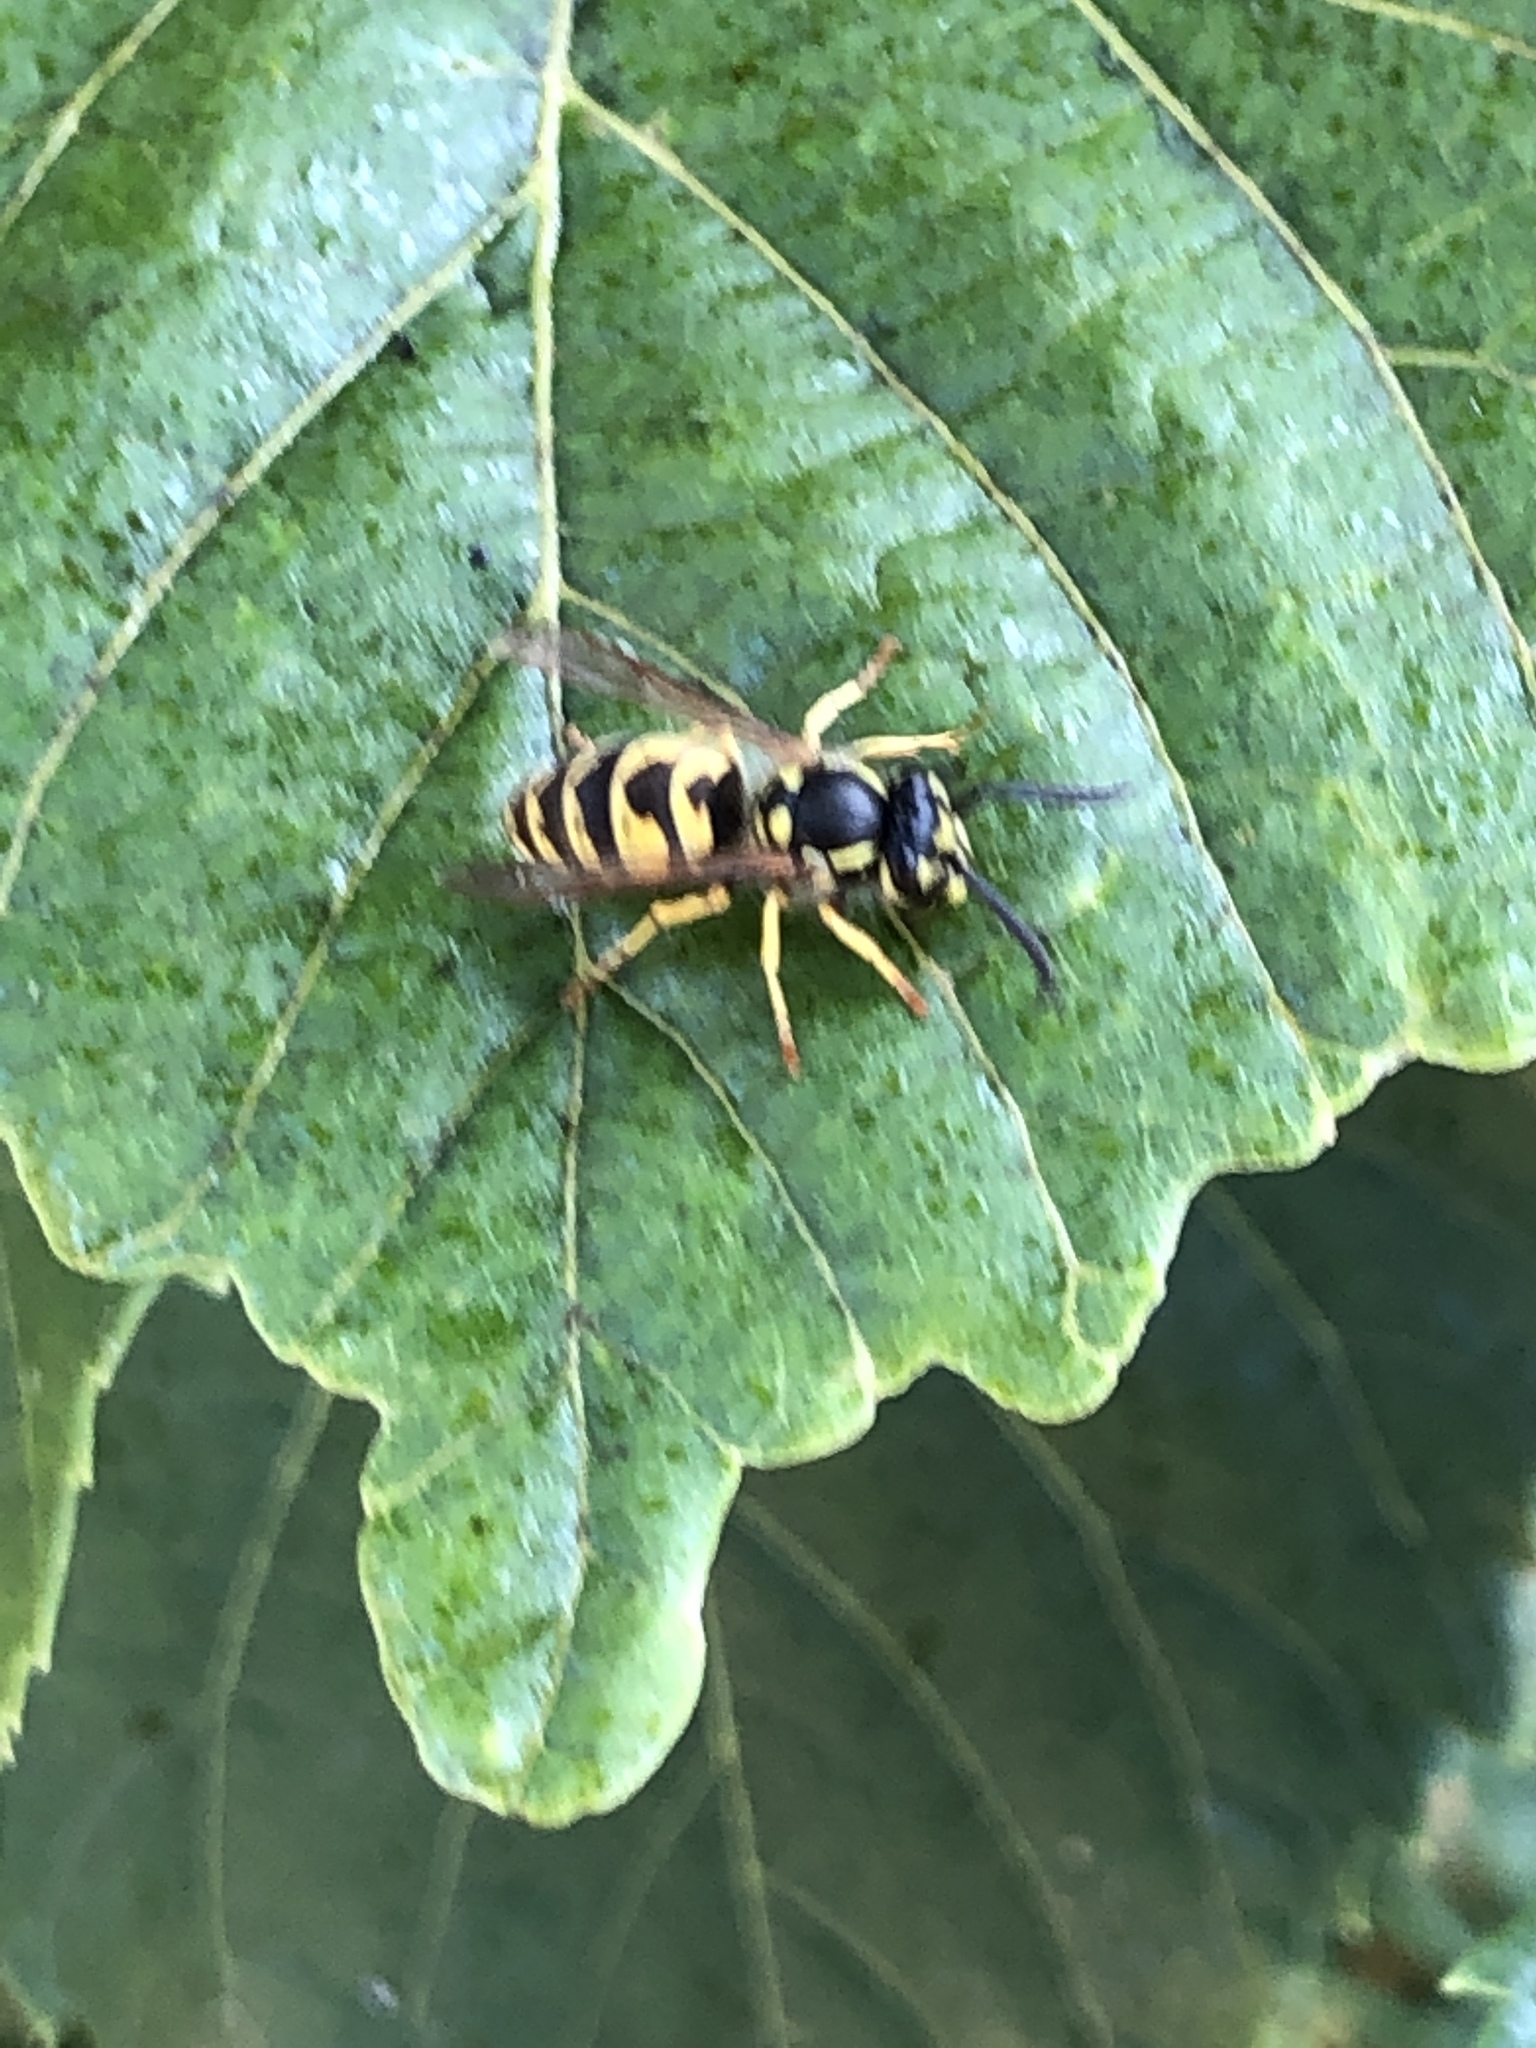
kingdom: Animalia
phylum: Arthropoda
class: Insecta
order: Hymenoptera
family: Vespidae
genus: Vespula
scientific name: Vespula vulgaris
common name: Common wasp
